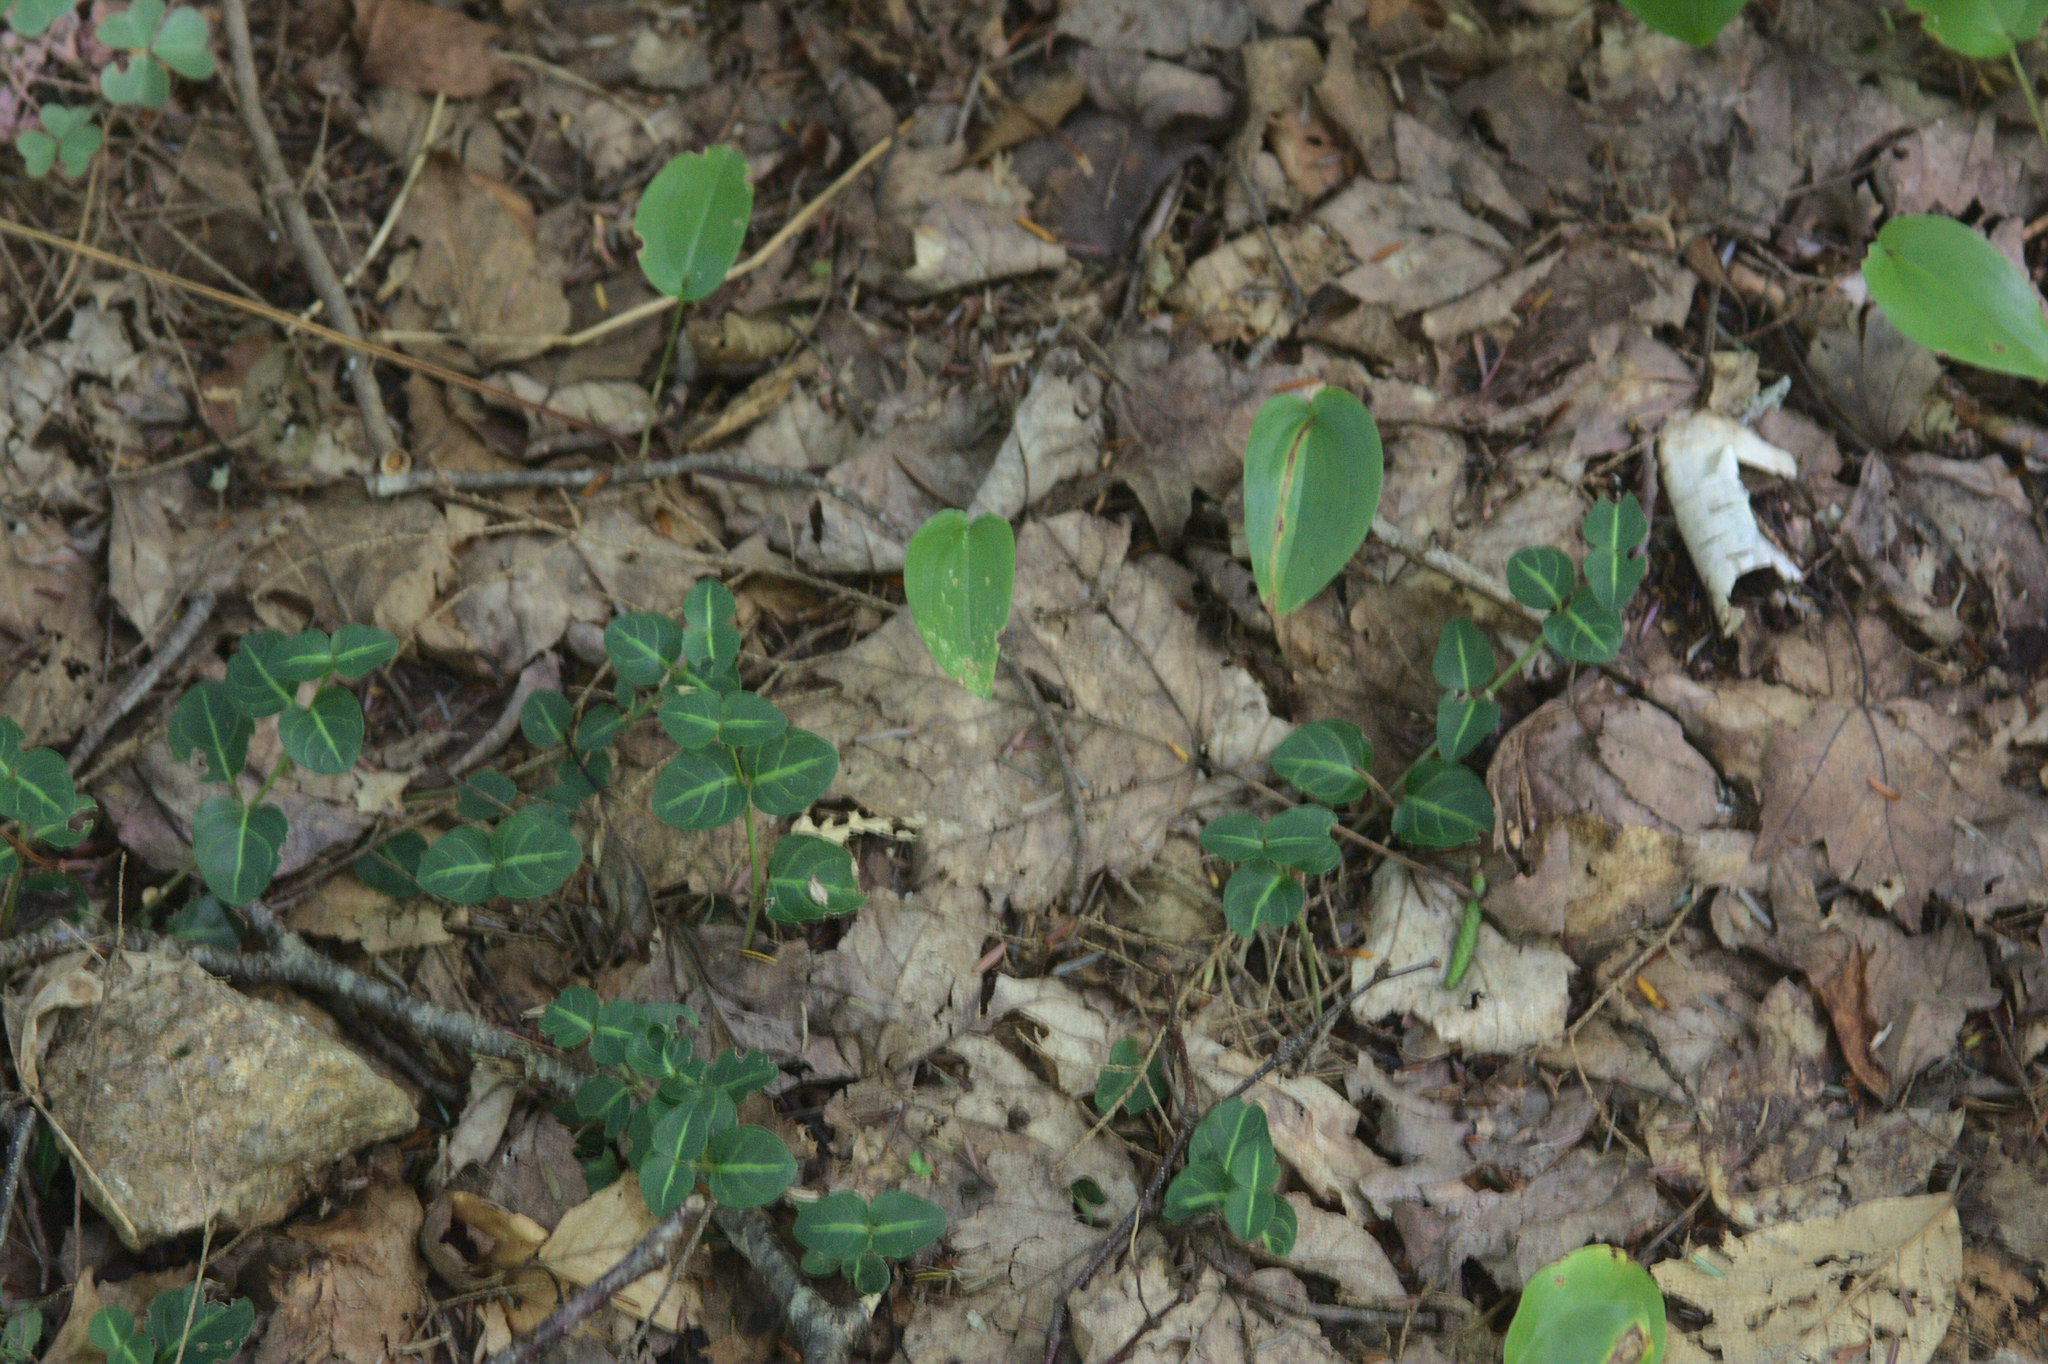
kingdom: Plantae
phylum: Tracheophyta
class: Liliopsida
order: Asparagales
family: Asparagaceae
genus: Maianthemum
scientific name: Maianthemum canadense
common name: False lily-of-the-valley
